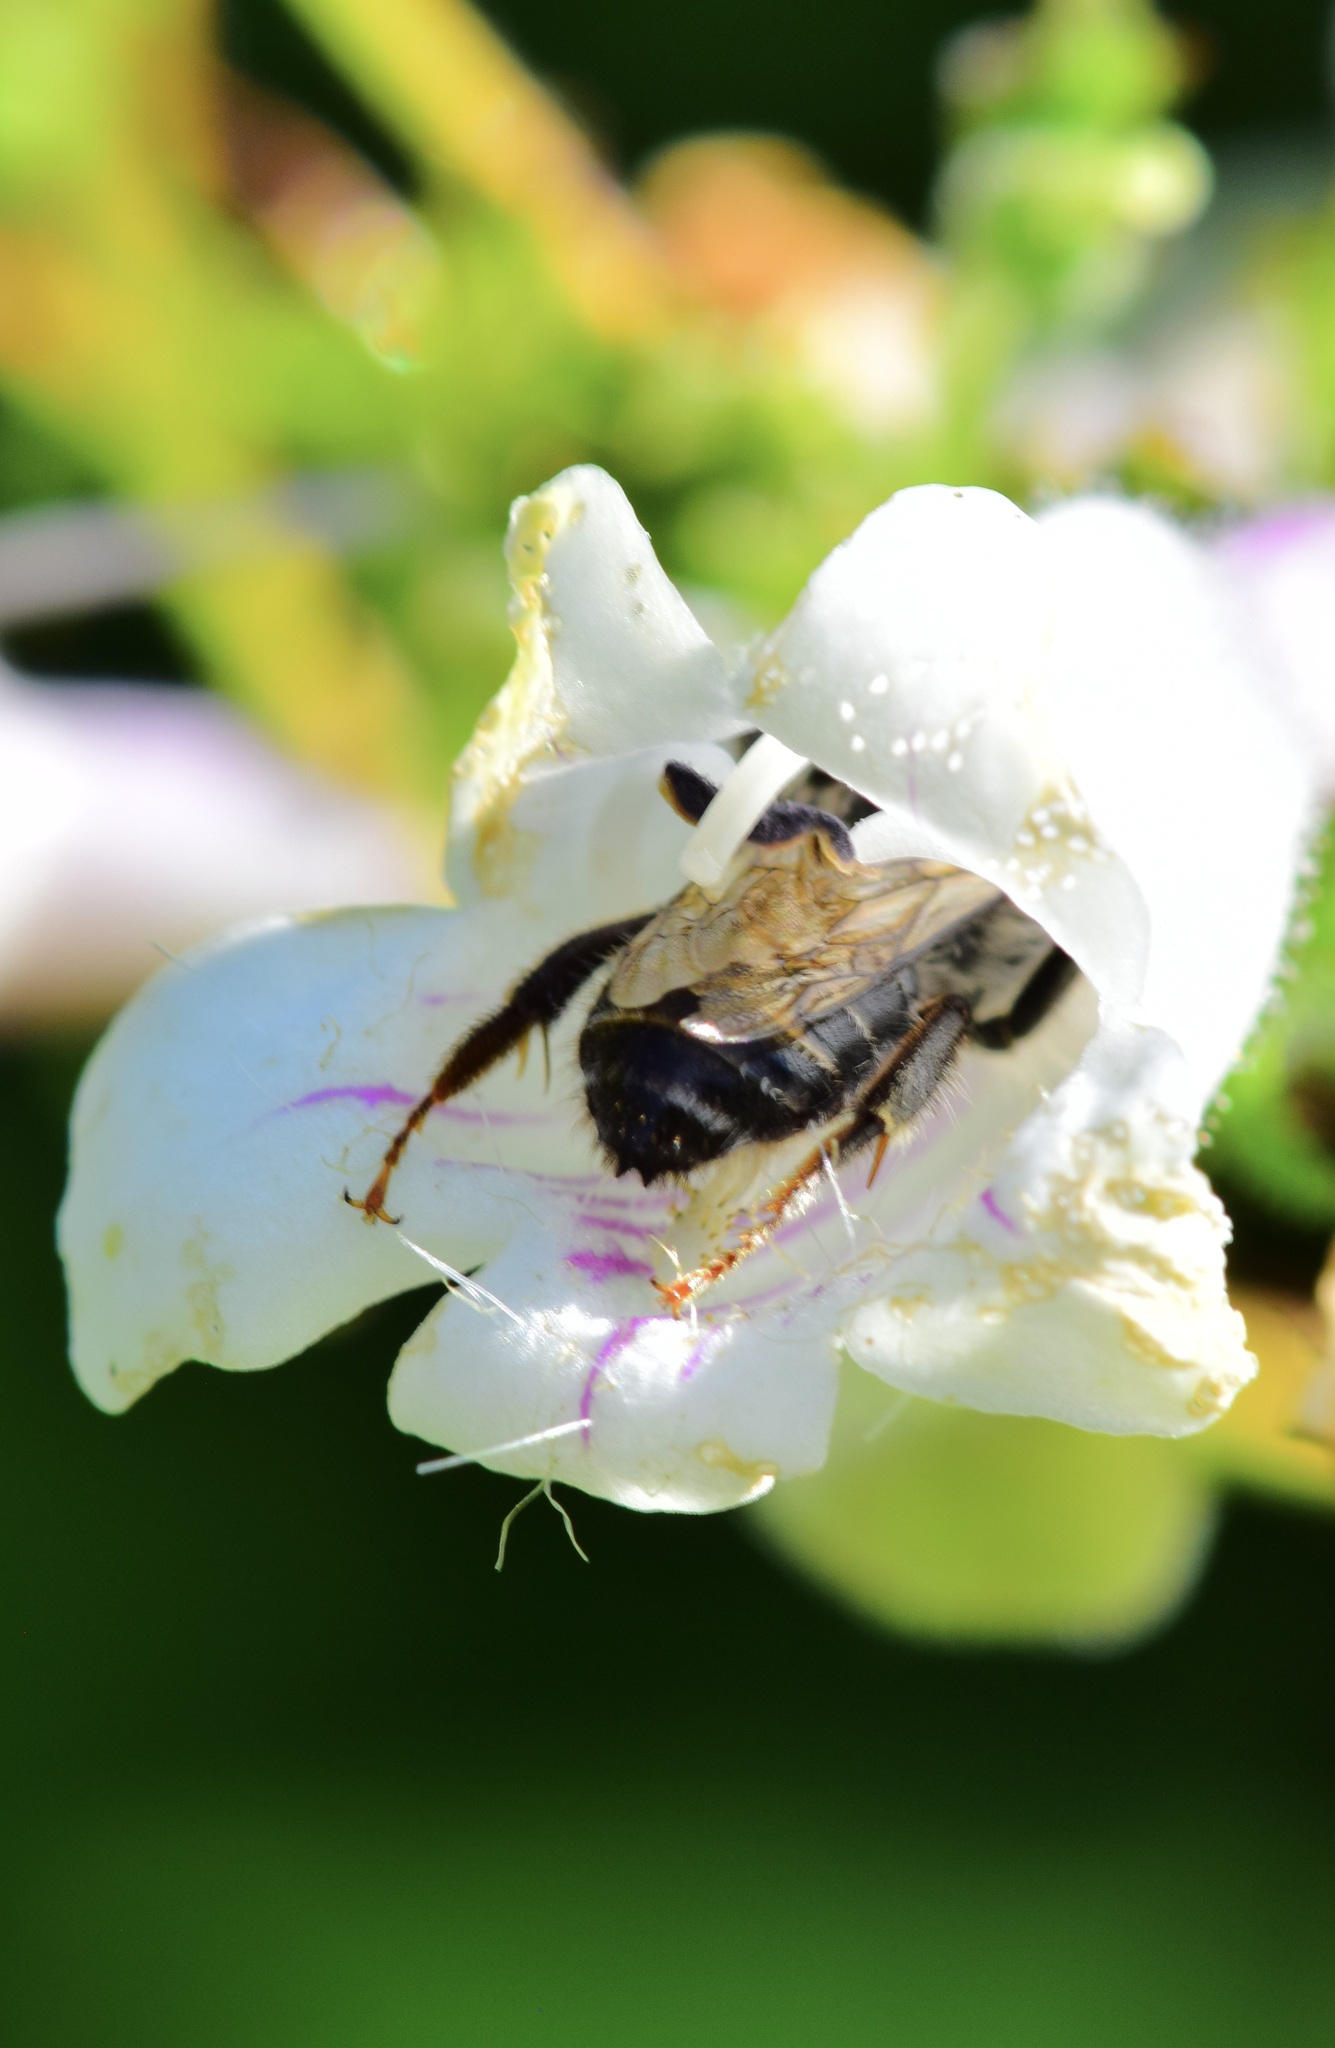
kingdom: Animalia
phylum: Arthropoda
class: Insecta
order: Hymenoptera
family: Apidae
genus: Anthophora
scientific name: Anthophora terminalis
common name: Orange-tipped wood-digger bee
